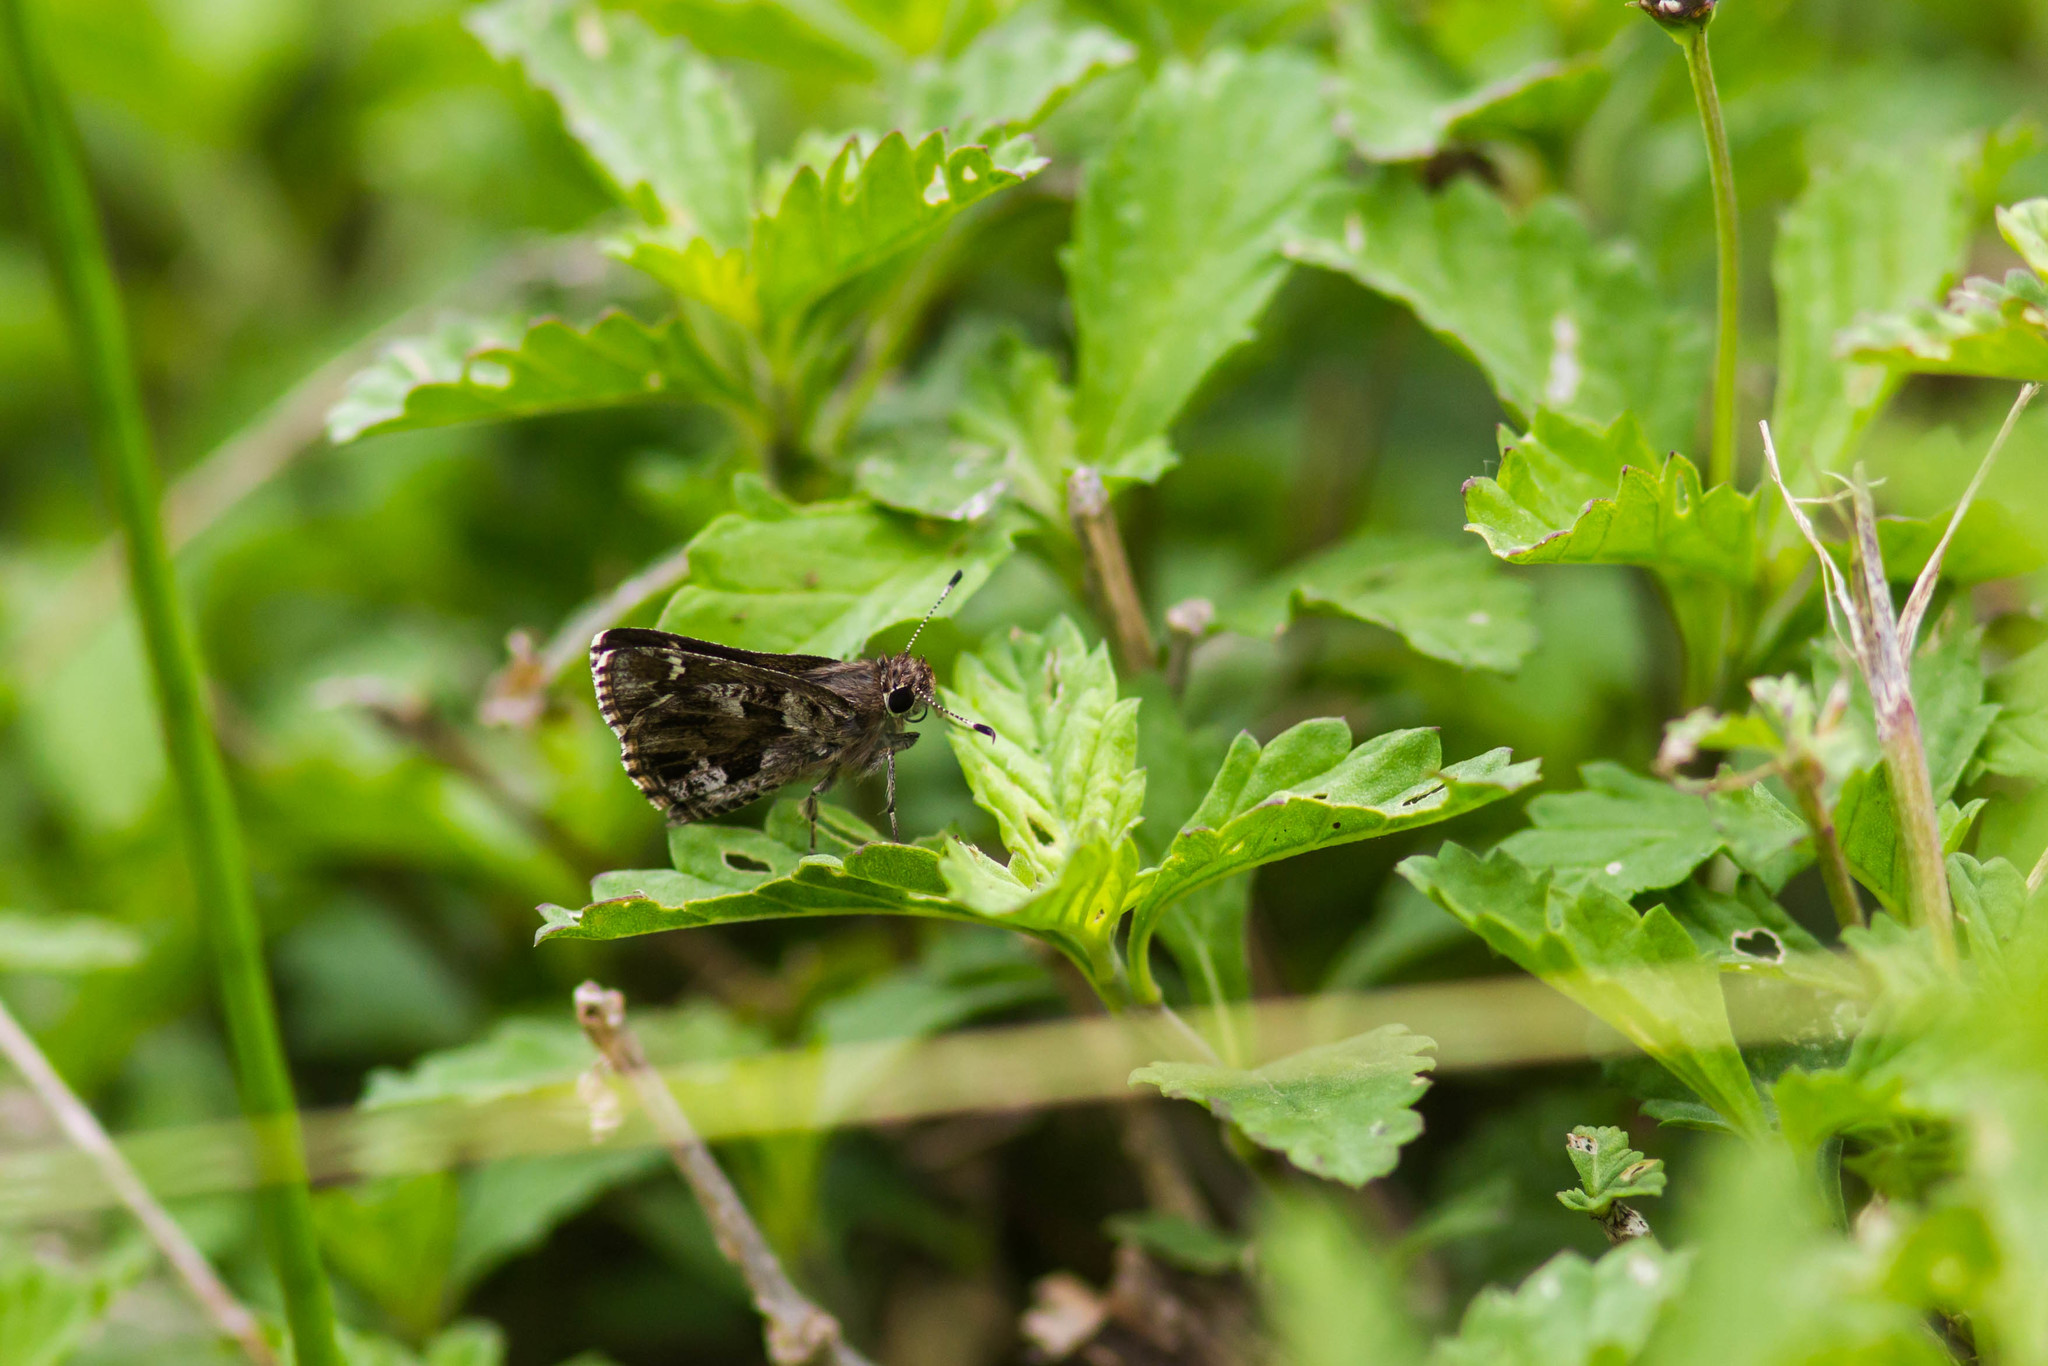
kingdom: Animalia
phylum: Arthropoda
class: Insecta
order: Lepidoptera
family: Hesperiidae
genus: Mastor
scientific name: Mastor nysa
